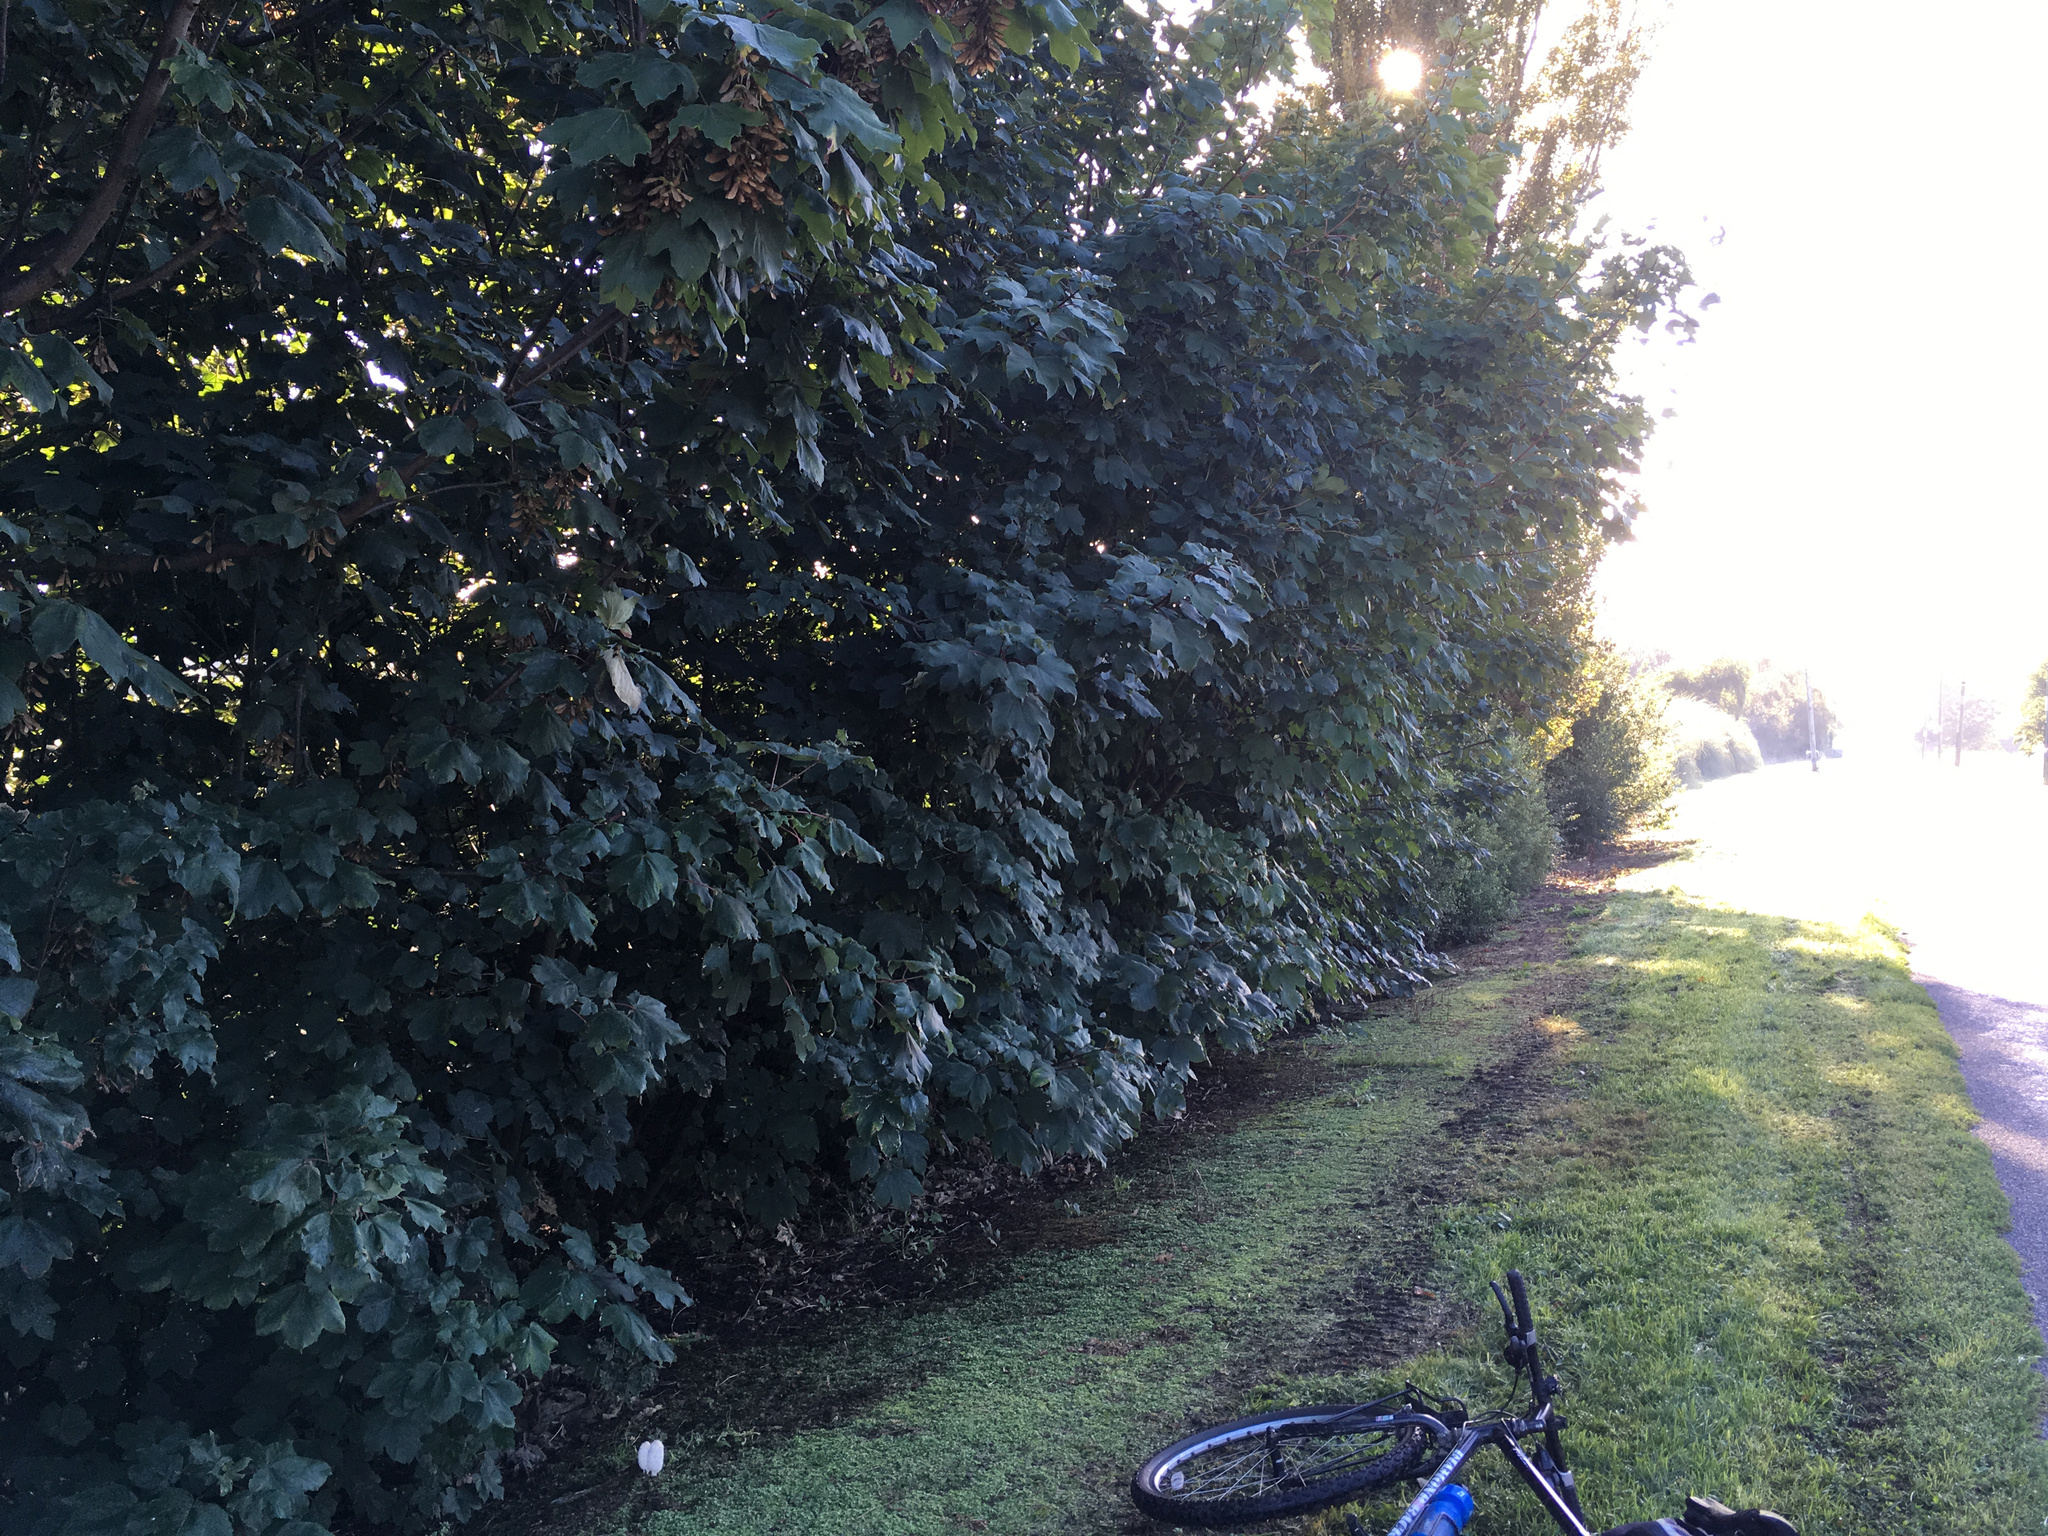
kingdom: Plantae
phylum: Tracheophyta
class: Magnoliopsida
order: Sapindales
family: Sapindaceae
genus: Acer
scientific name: Acer pseudoplatanus
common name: Sycamore
